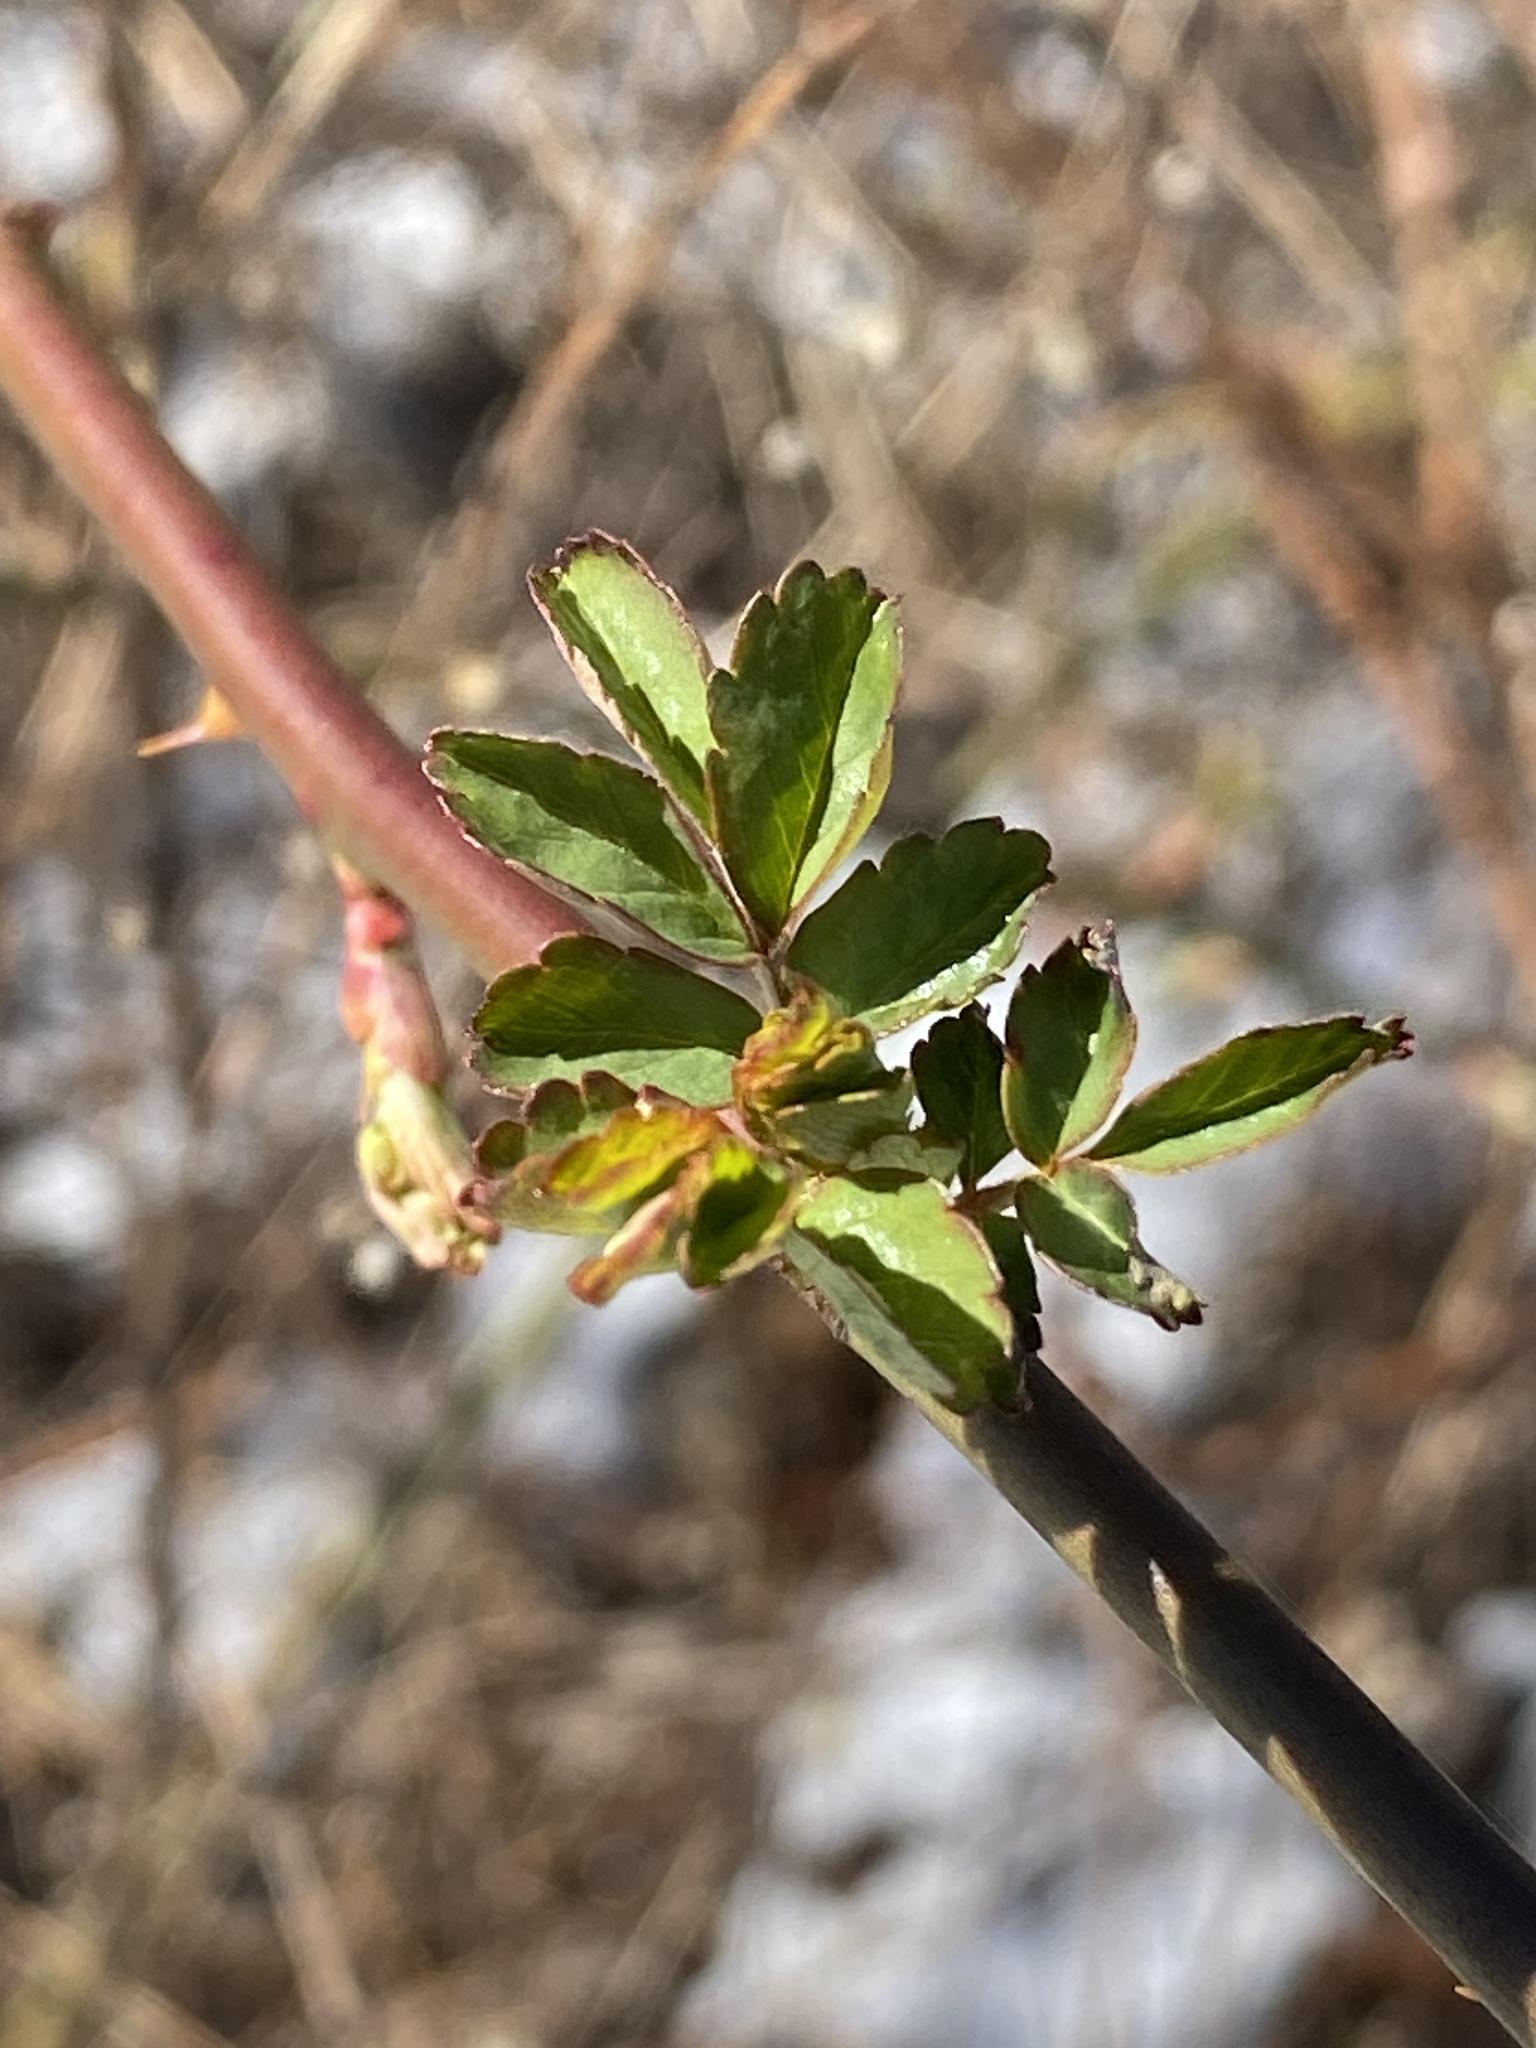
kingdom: Plantae
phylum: Tracheophyta
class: Magnoliopsida
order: Rosales
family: Rosaceae
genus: Rosa
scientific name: Rosa multiflora
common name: Multiflora rose
